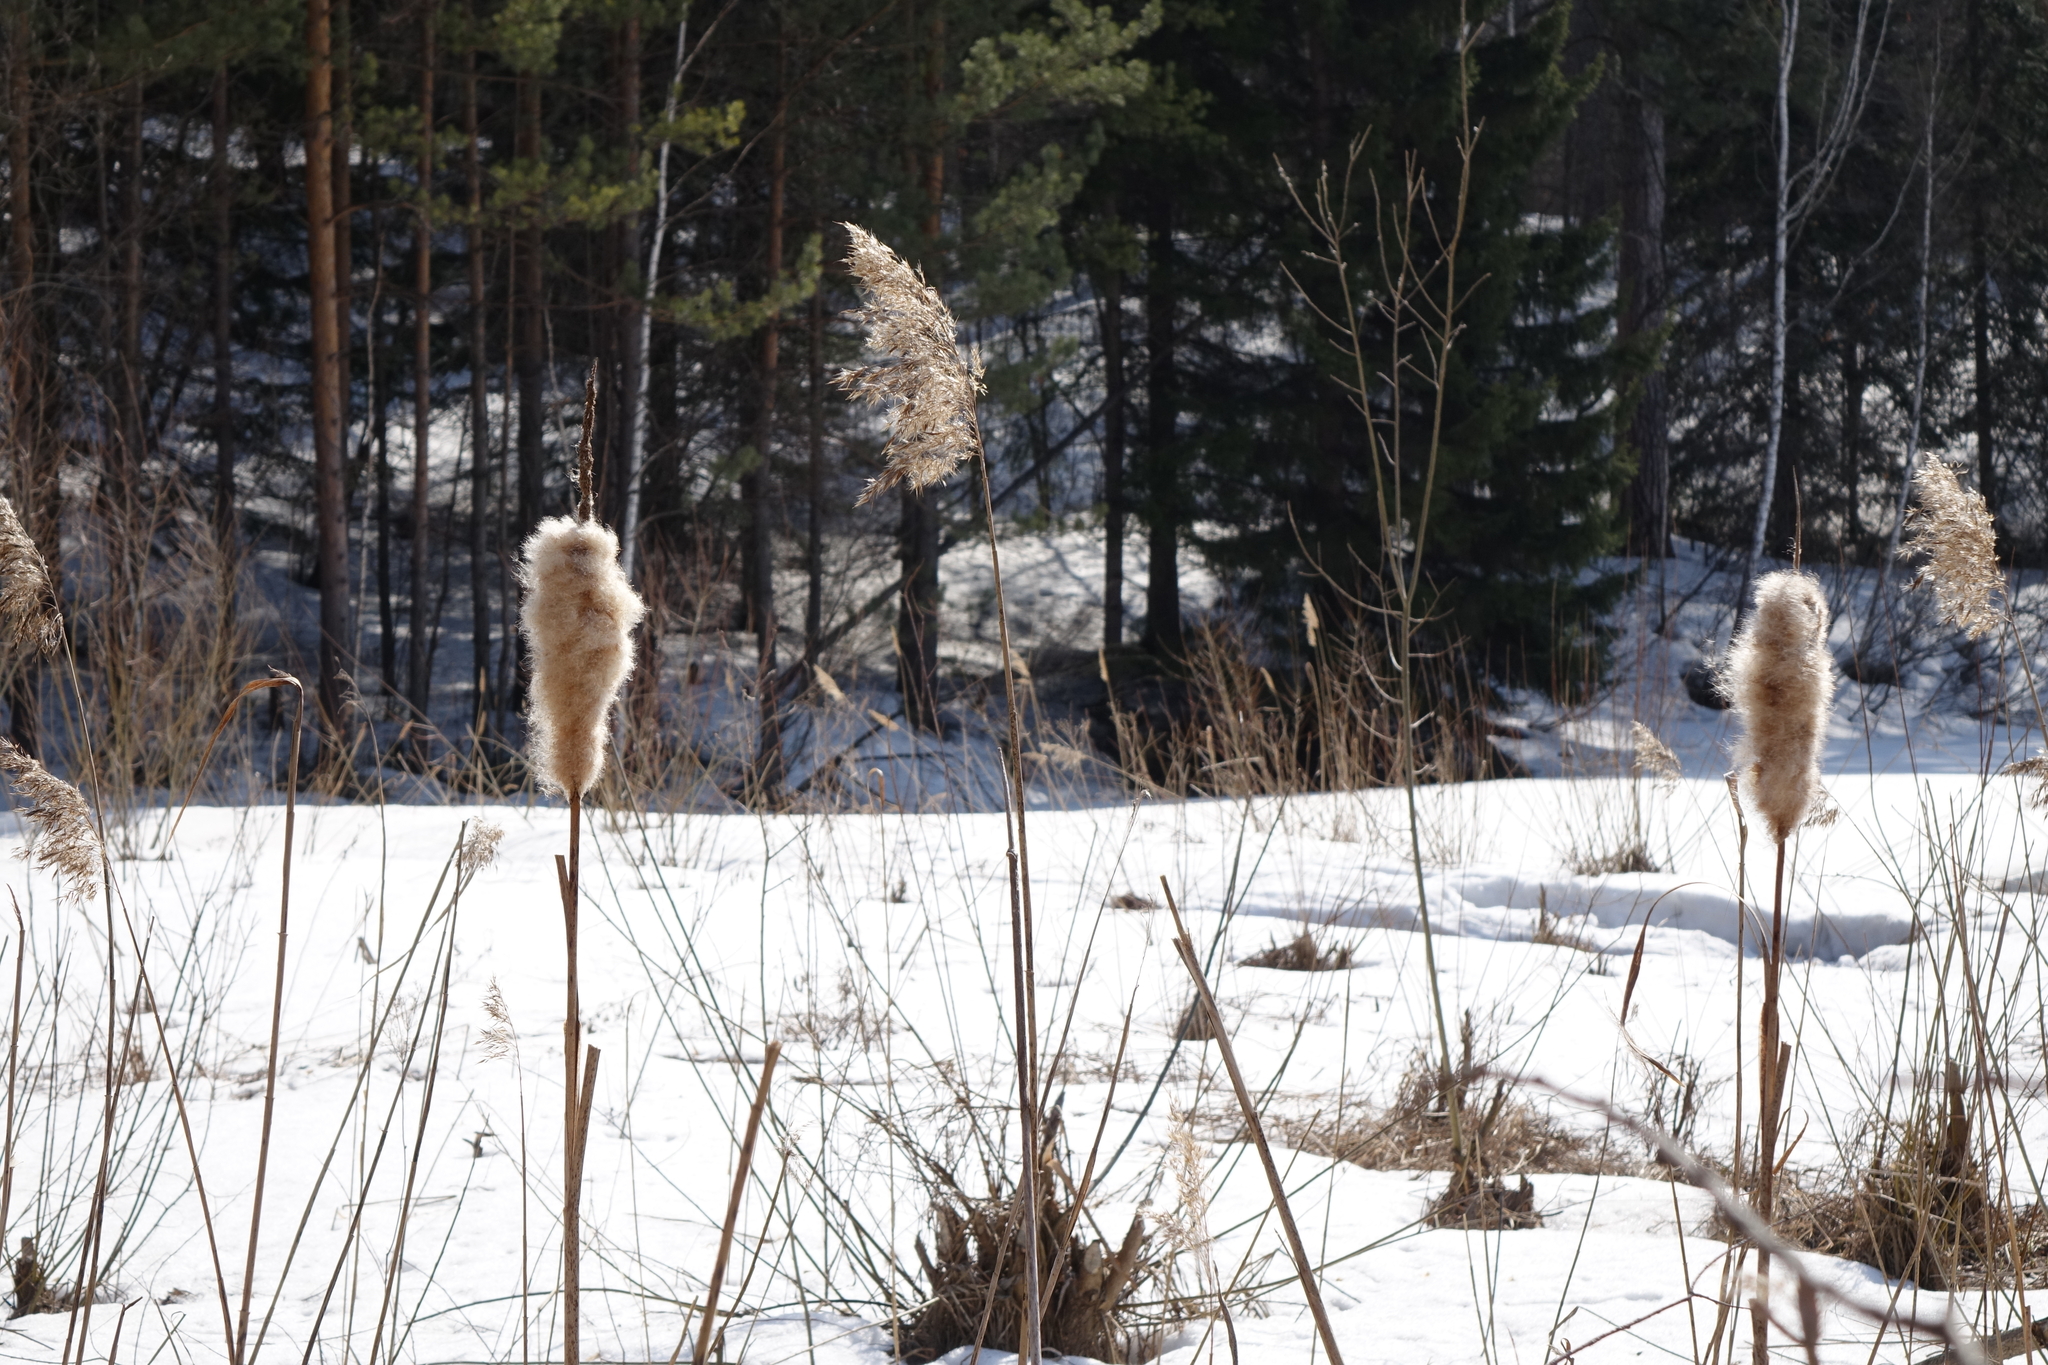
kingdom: Plantae
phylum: Tracheophyta
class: Liliopsida
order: Poales
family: Typhaceae
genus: Typha
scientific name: Typha latifolia
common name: Broadleaf cattail
